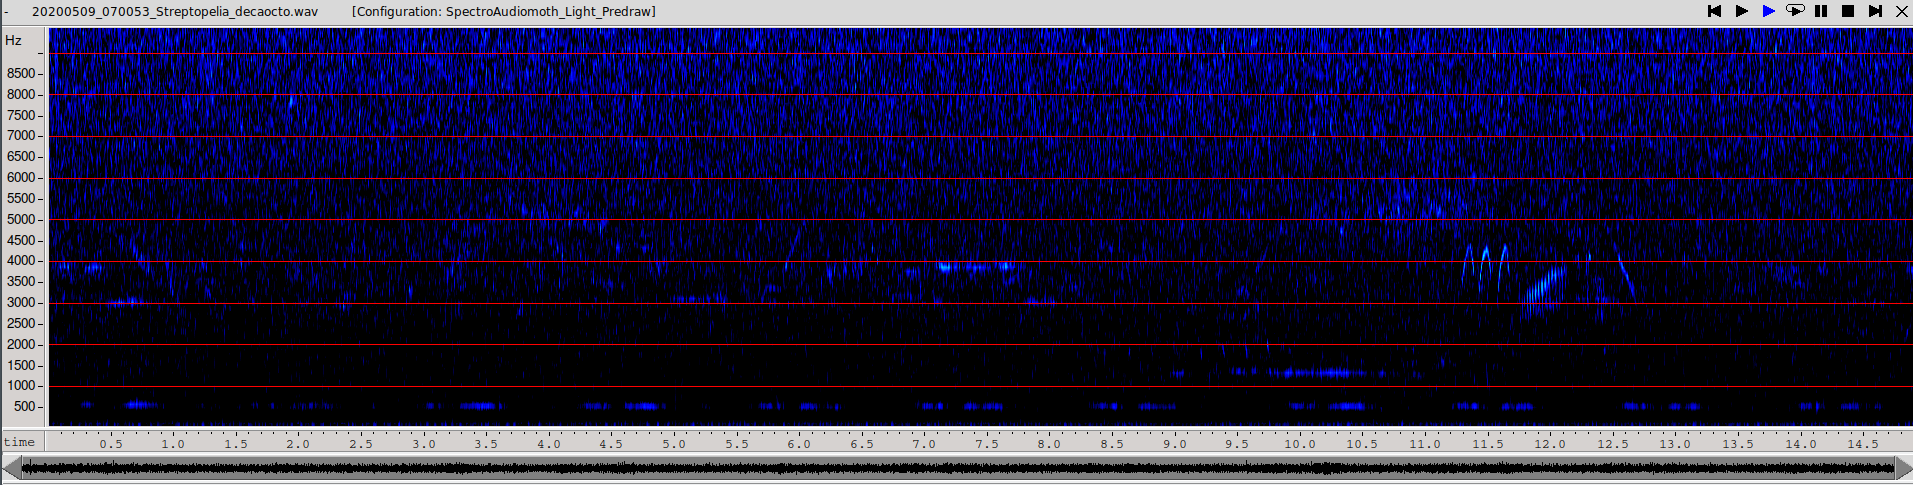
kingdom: Animalia
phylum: Chordata
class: Aves
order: Columbiformes
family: Columbidae
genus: Streptopelia
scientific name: Streptopelia decaocto
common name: Eurasian collared dove
